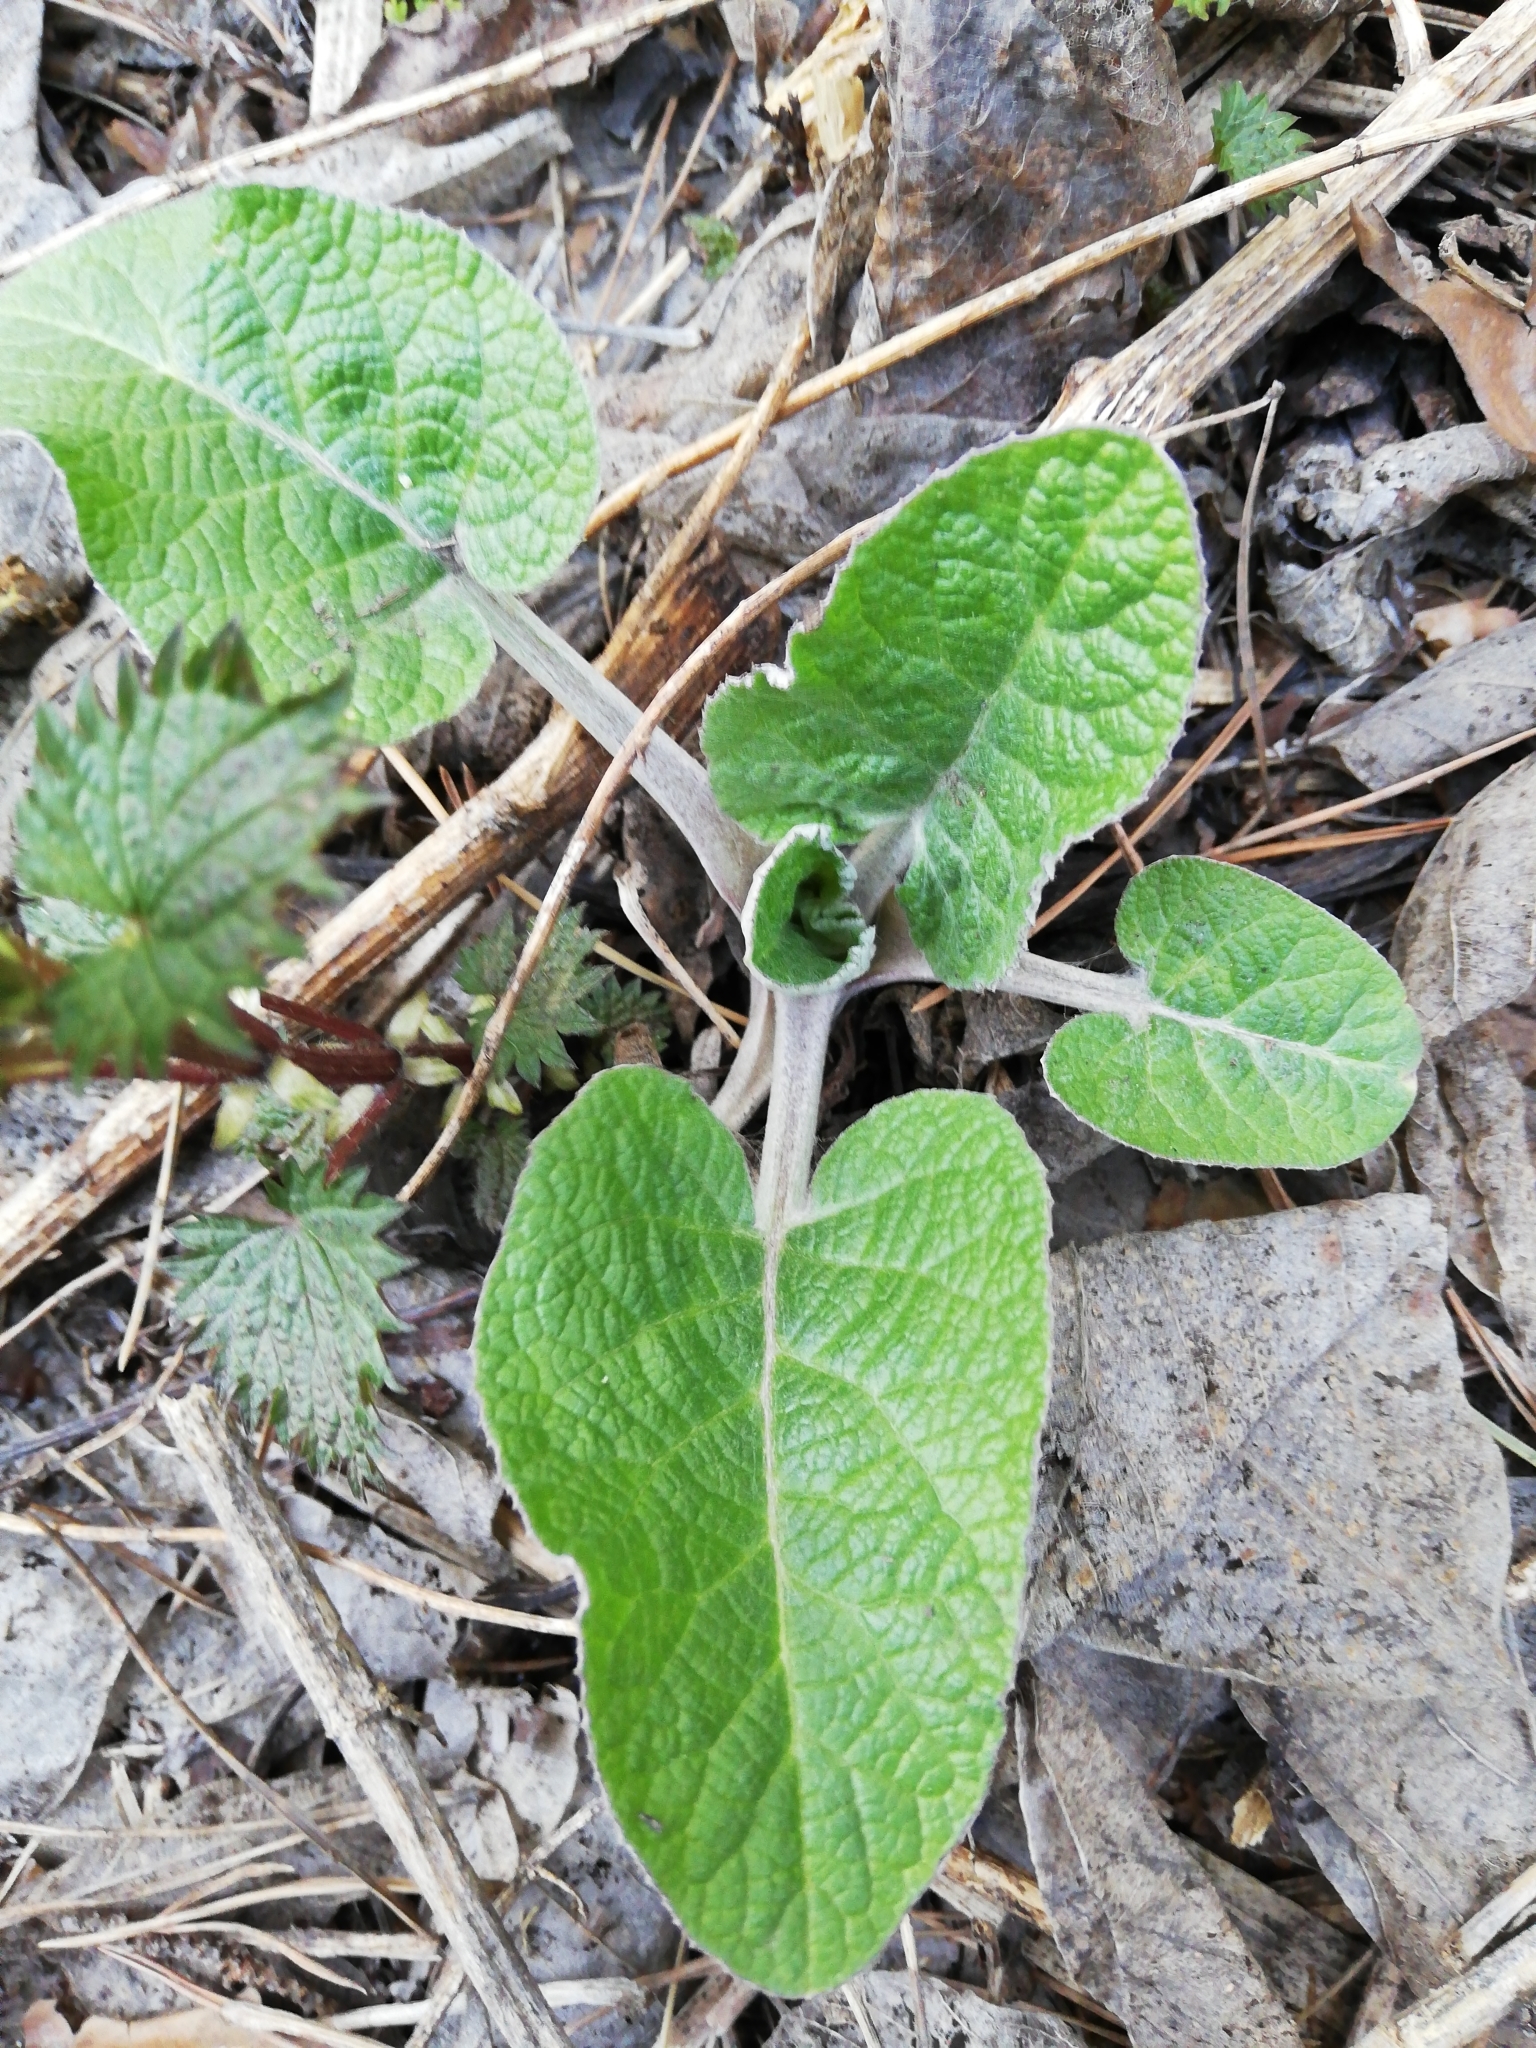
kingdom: Plantae
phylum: Tracheophyta
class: Magnoliopsida
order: Asterales
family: Asteraceae
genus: Arctium
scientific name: Arctium
